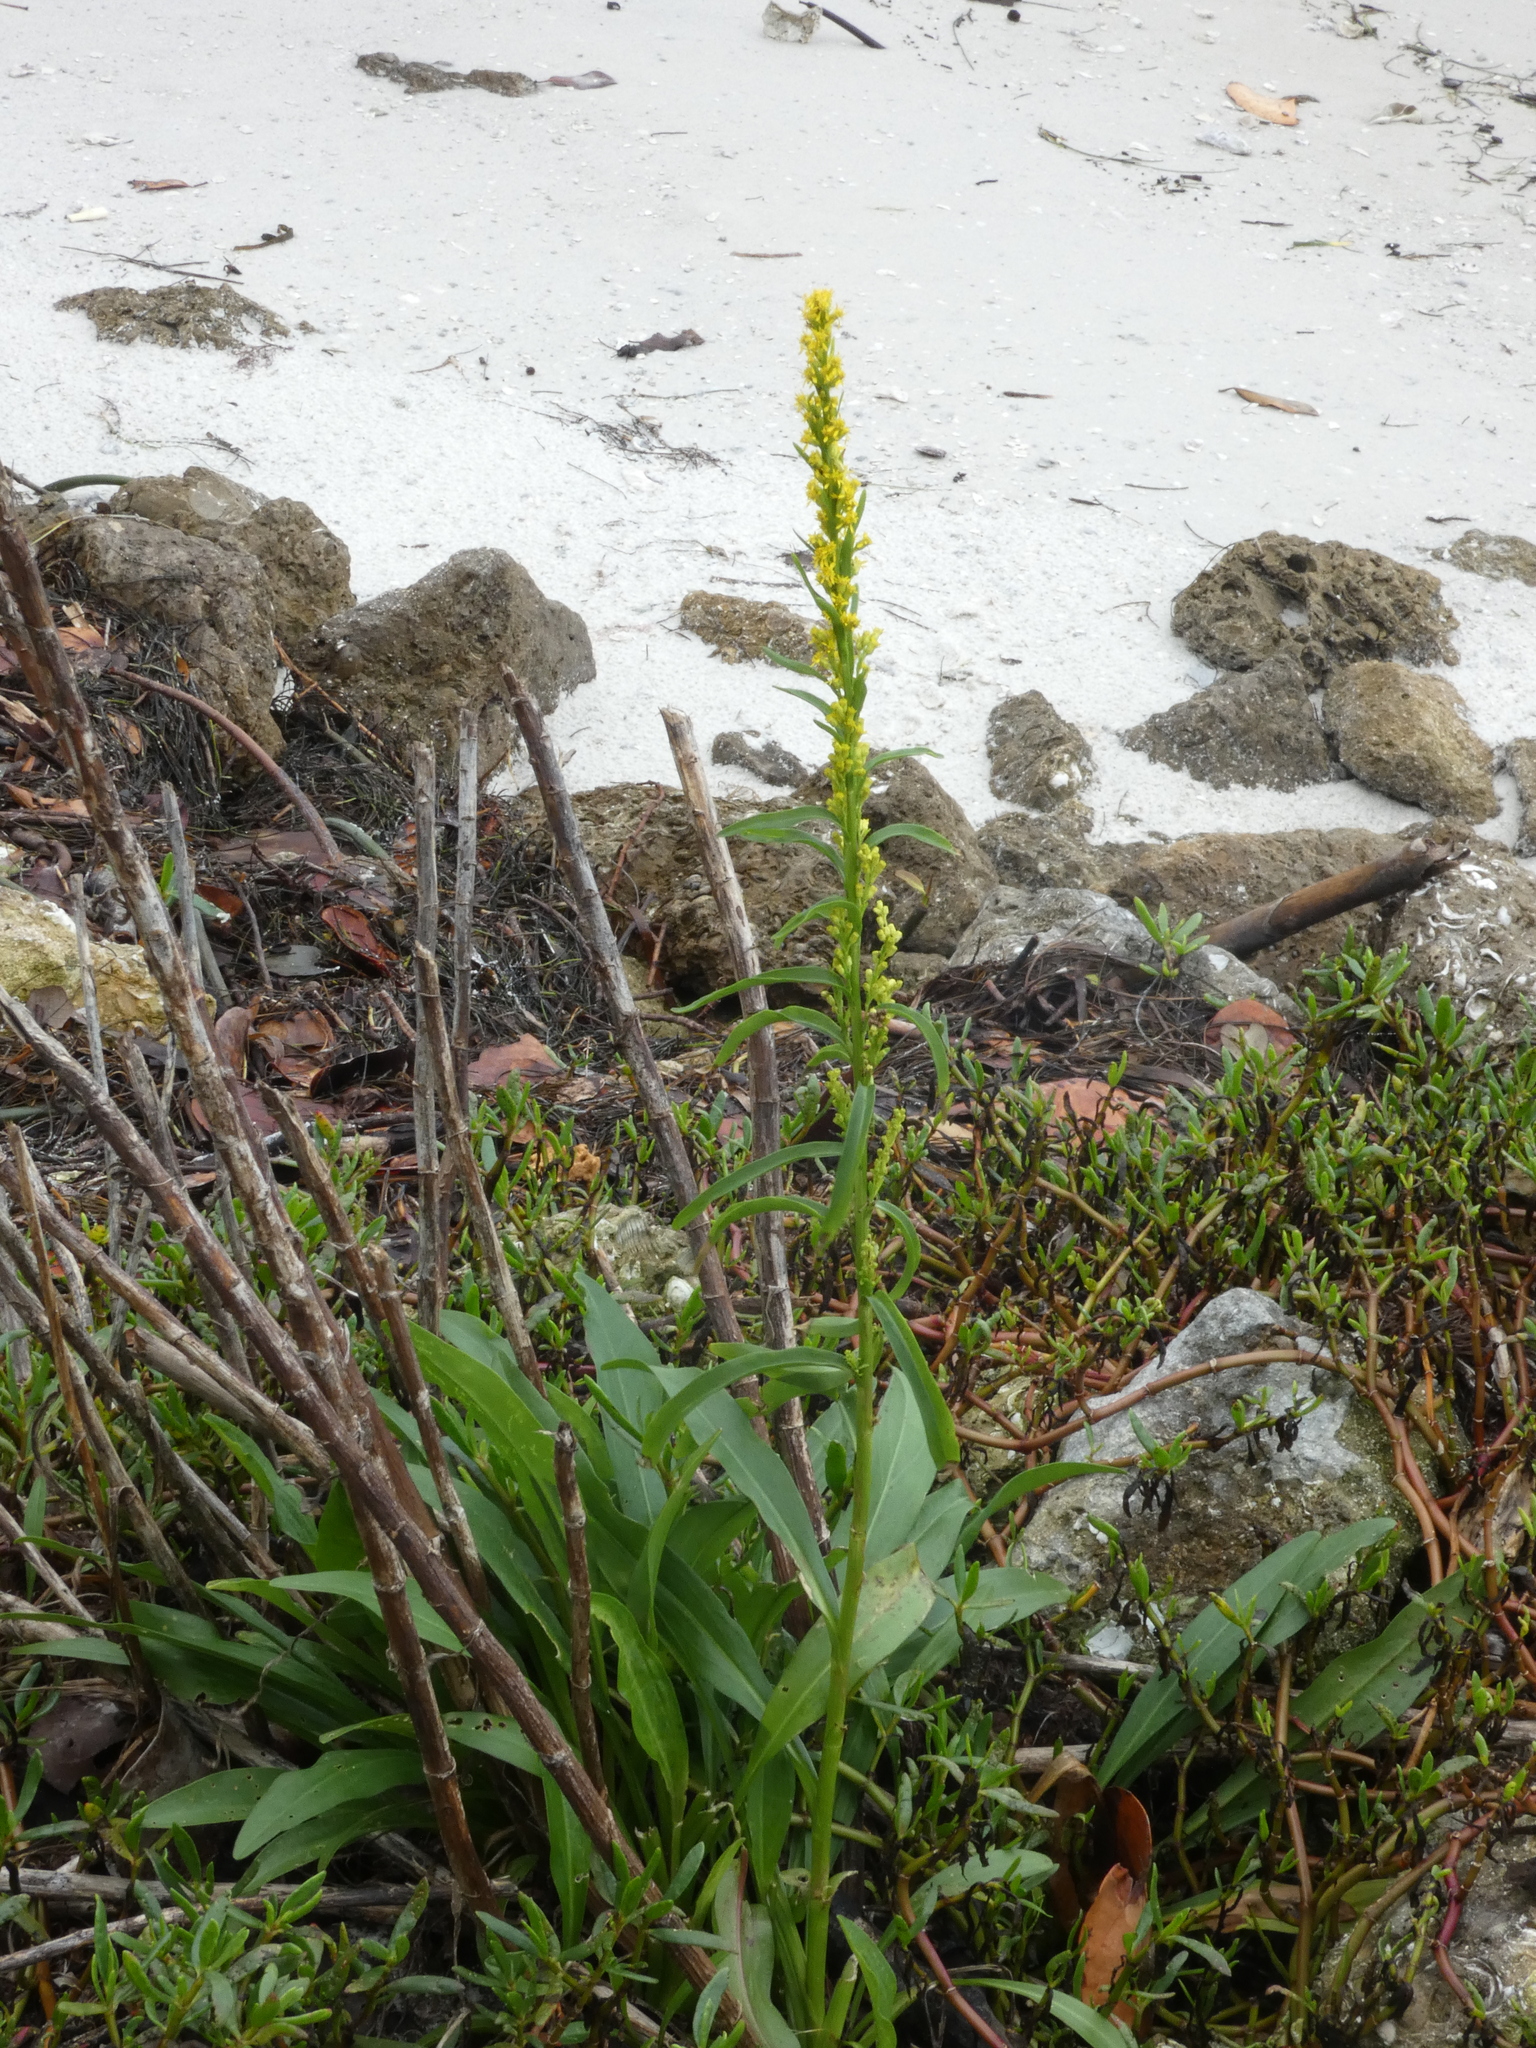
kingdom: Plantae
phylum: Tracheophyta
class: Magnoliopsida
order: Asterales
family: Asteraceae
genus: Solidago
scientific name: Solidago mexicana
